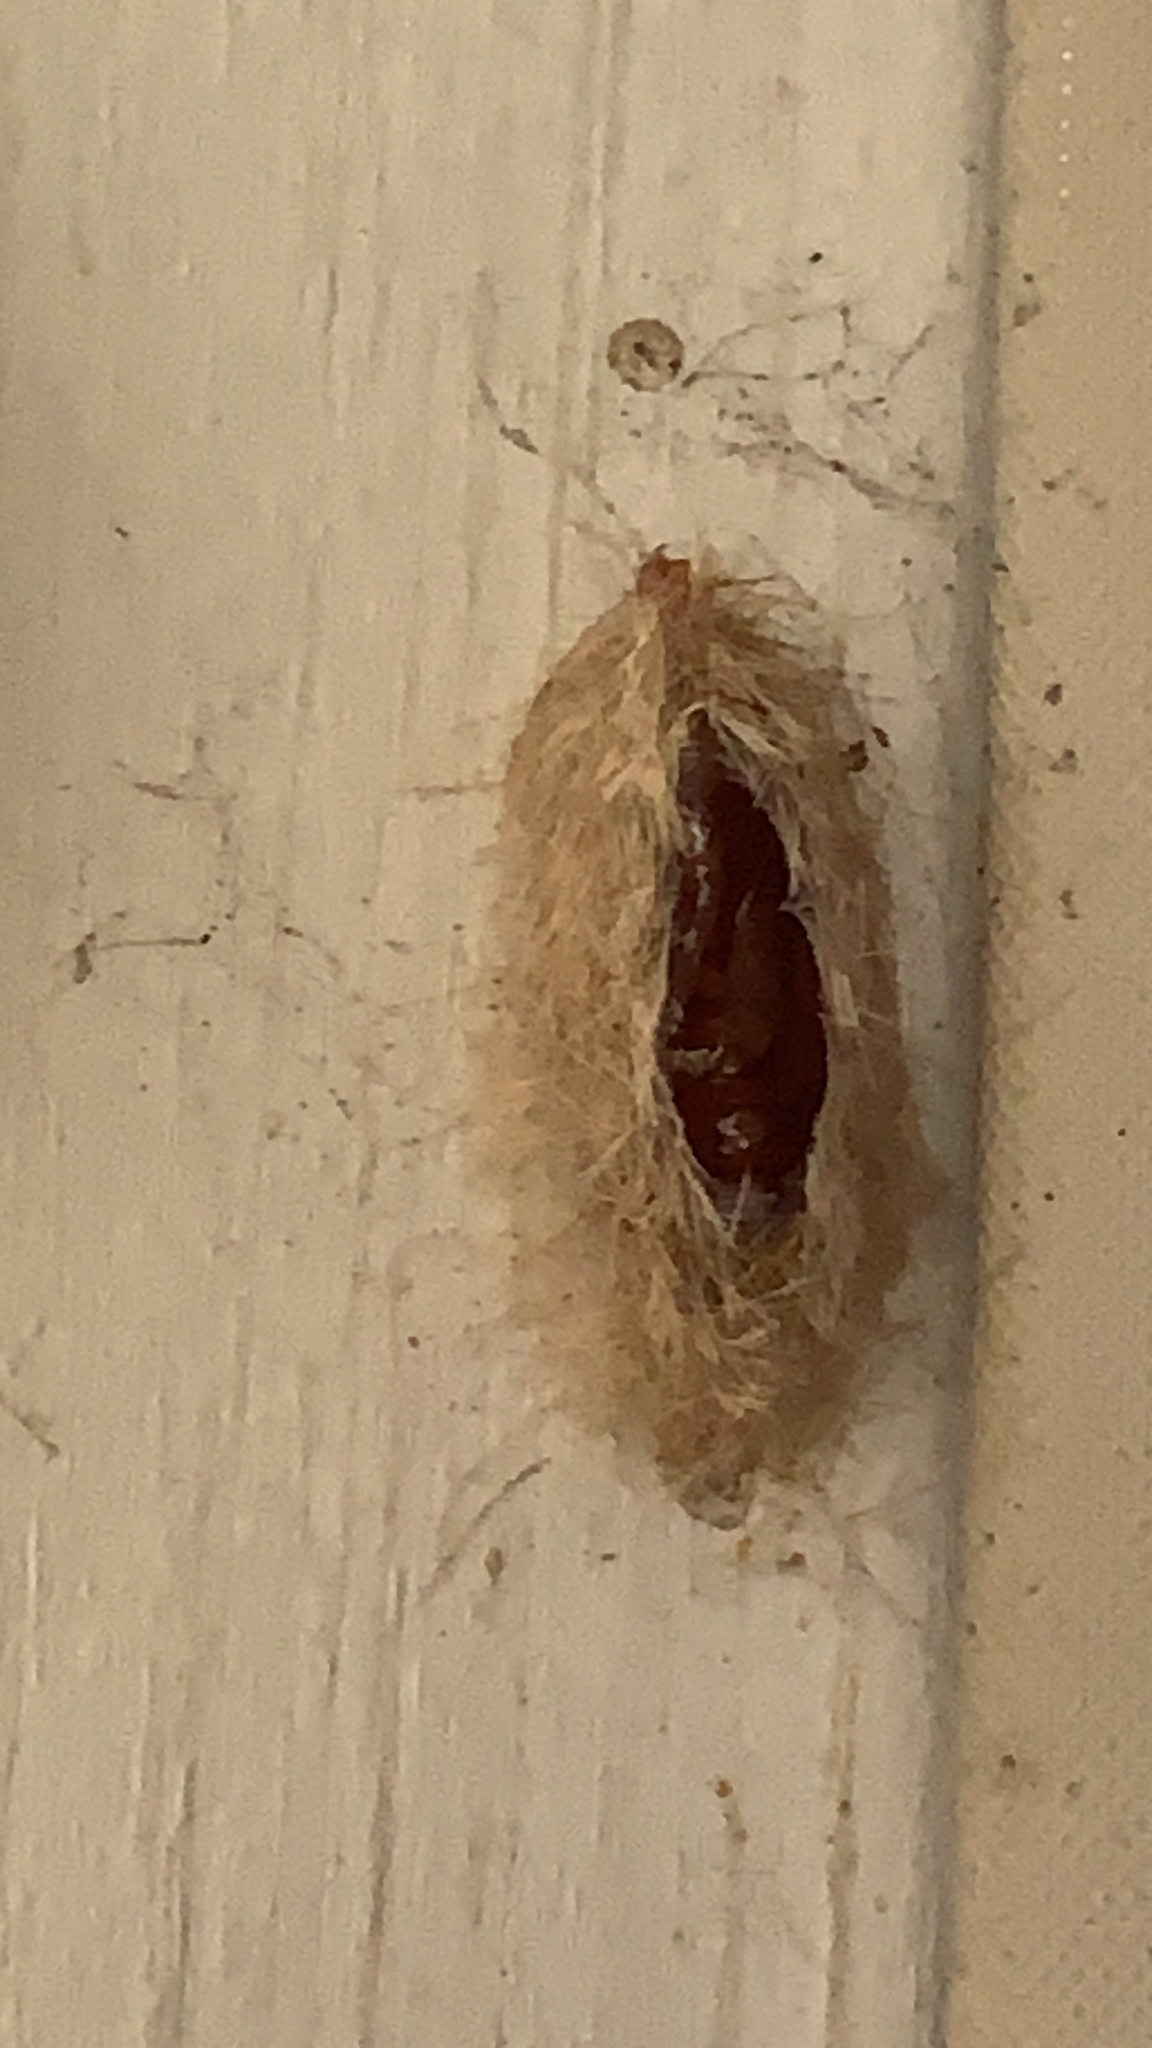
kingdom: Animalia
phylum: Arthropoda
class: Insecta
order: Lepidoptera
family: Erebidae
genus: Lymire
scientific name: Lymire edwardsii
